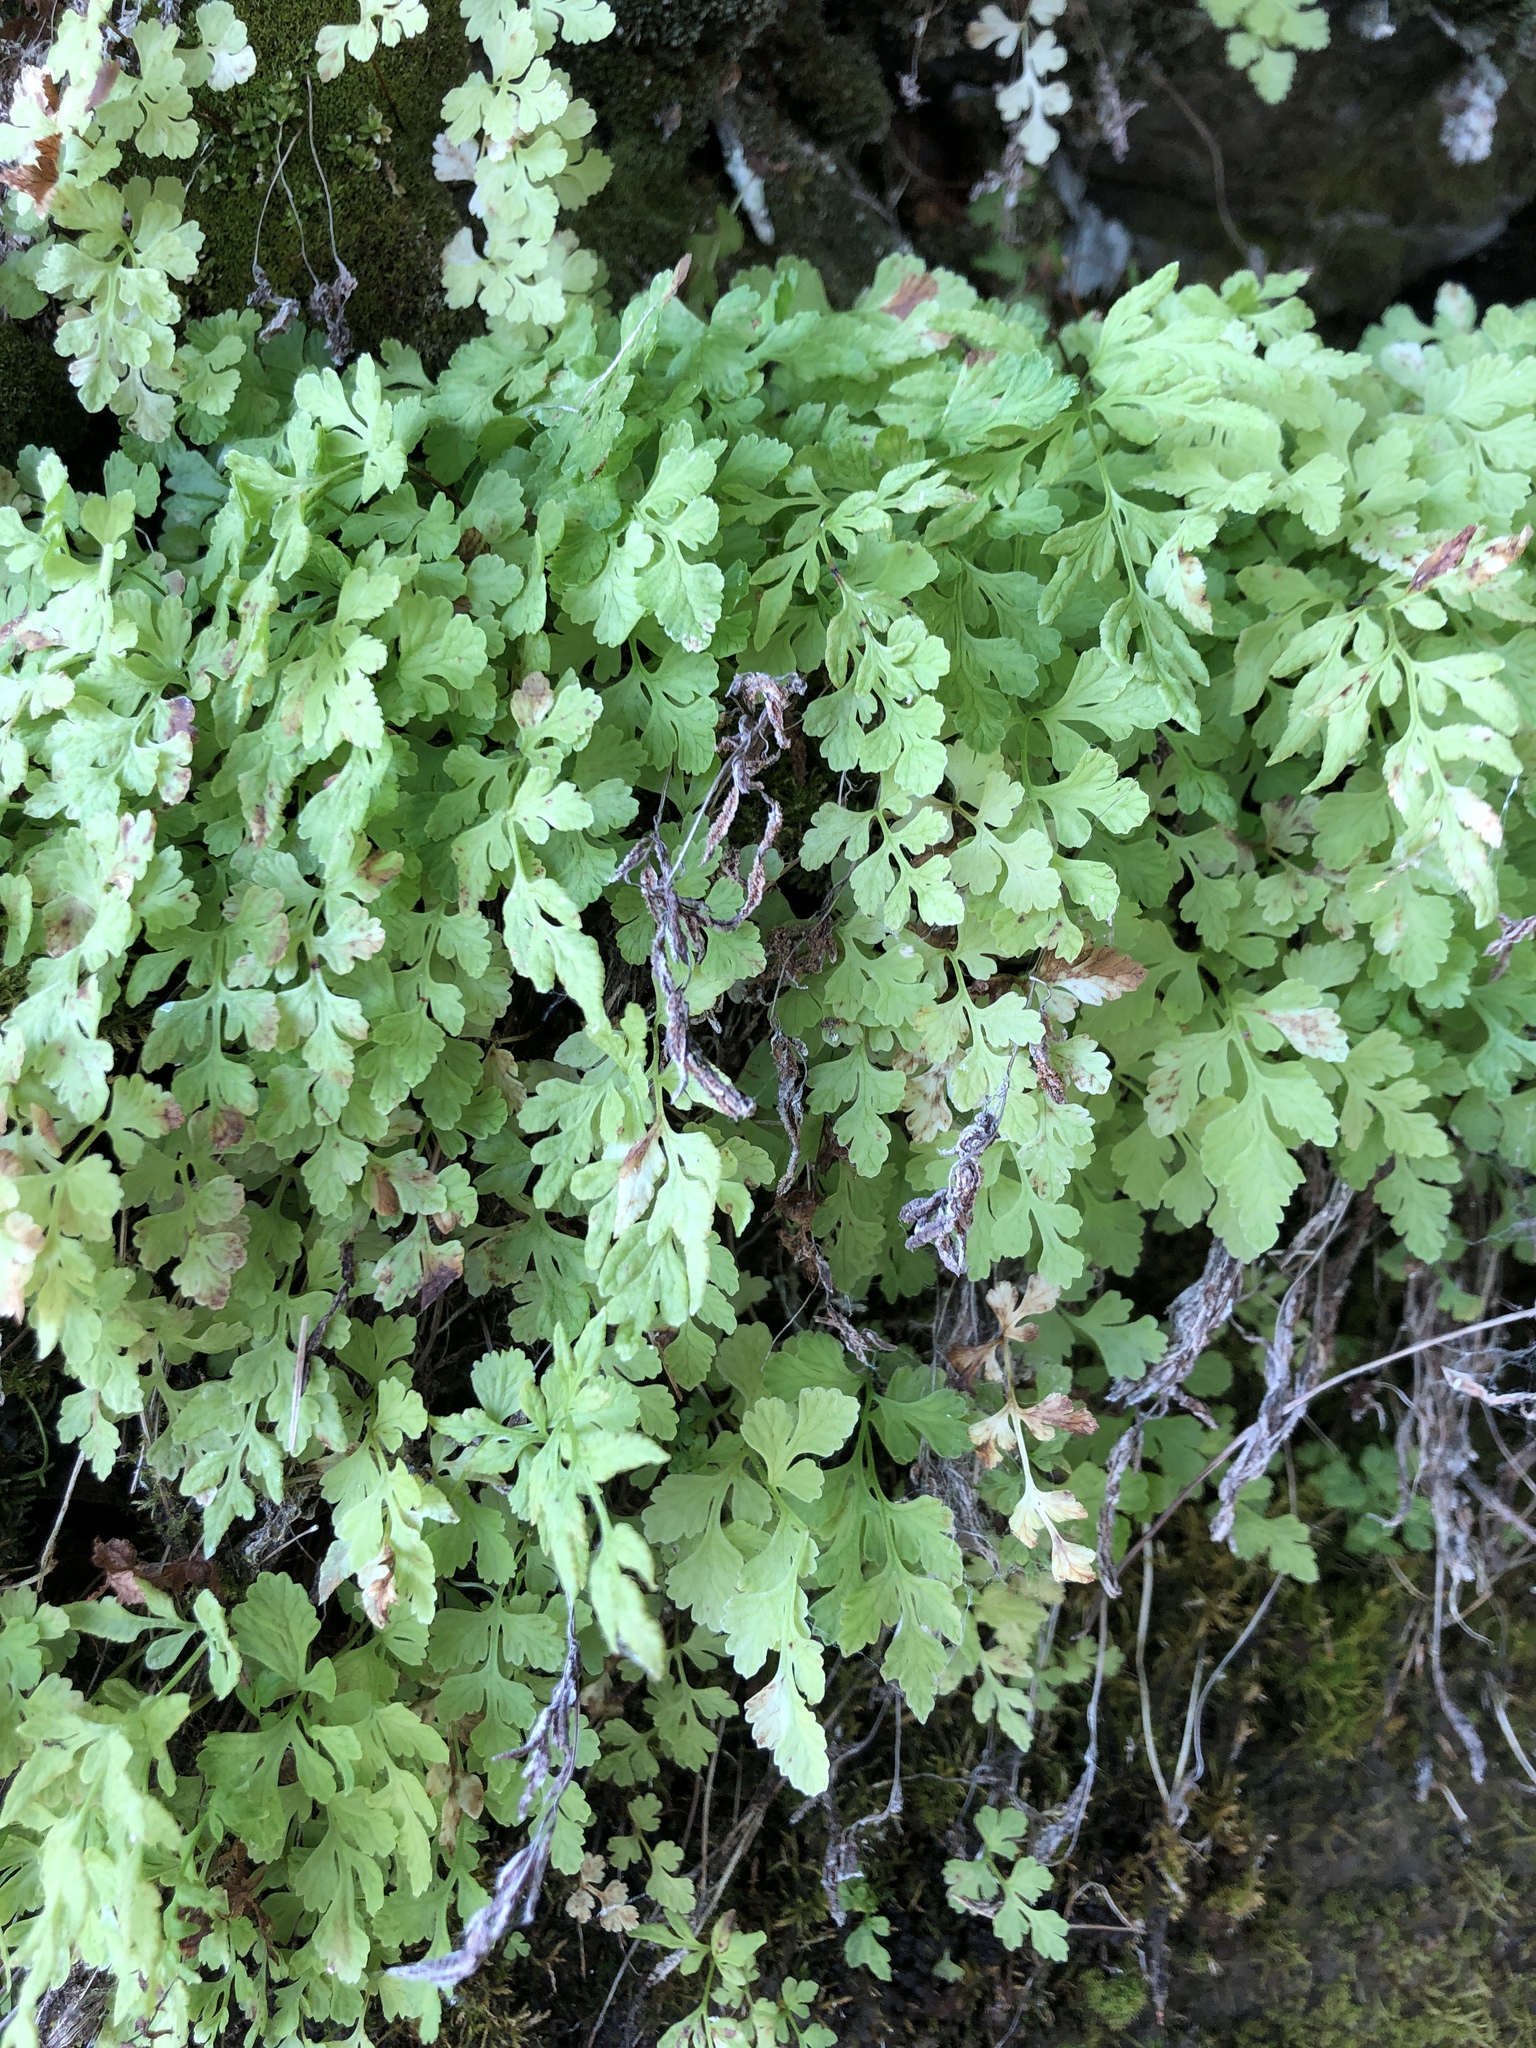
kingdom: Plantae
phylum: Tracheophyta
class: Polypodiopsida
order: Polypodiales
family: Pteridaceae
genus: Cryptogramma
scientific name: Cryptogramma stelleri
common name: Cliff-brake
